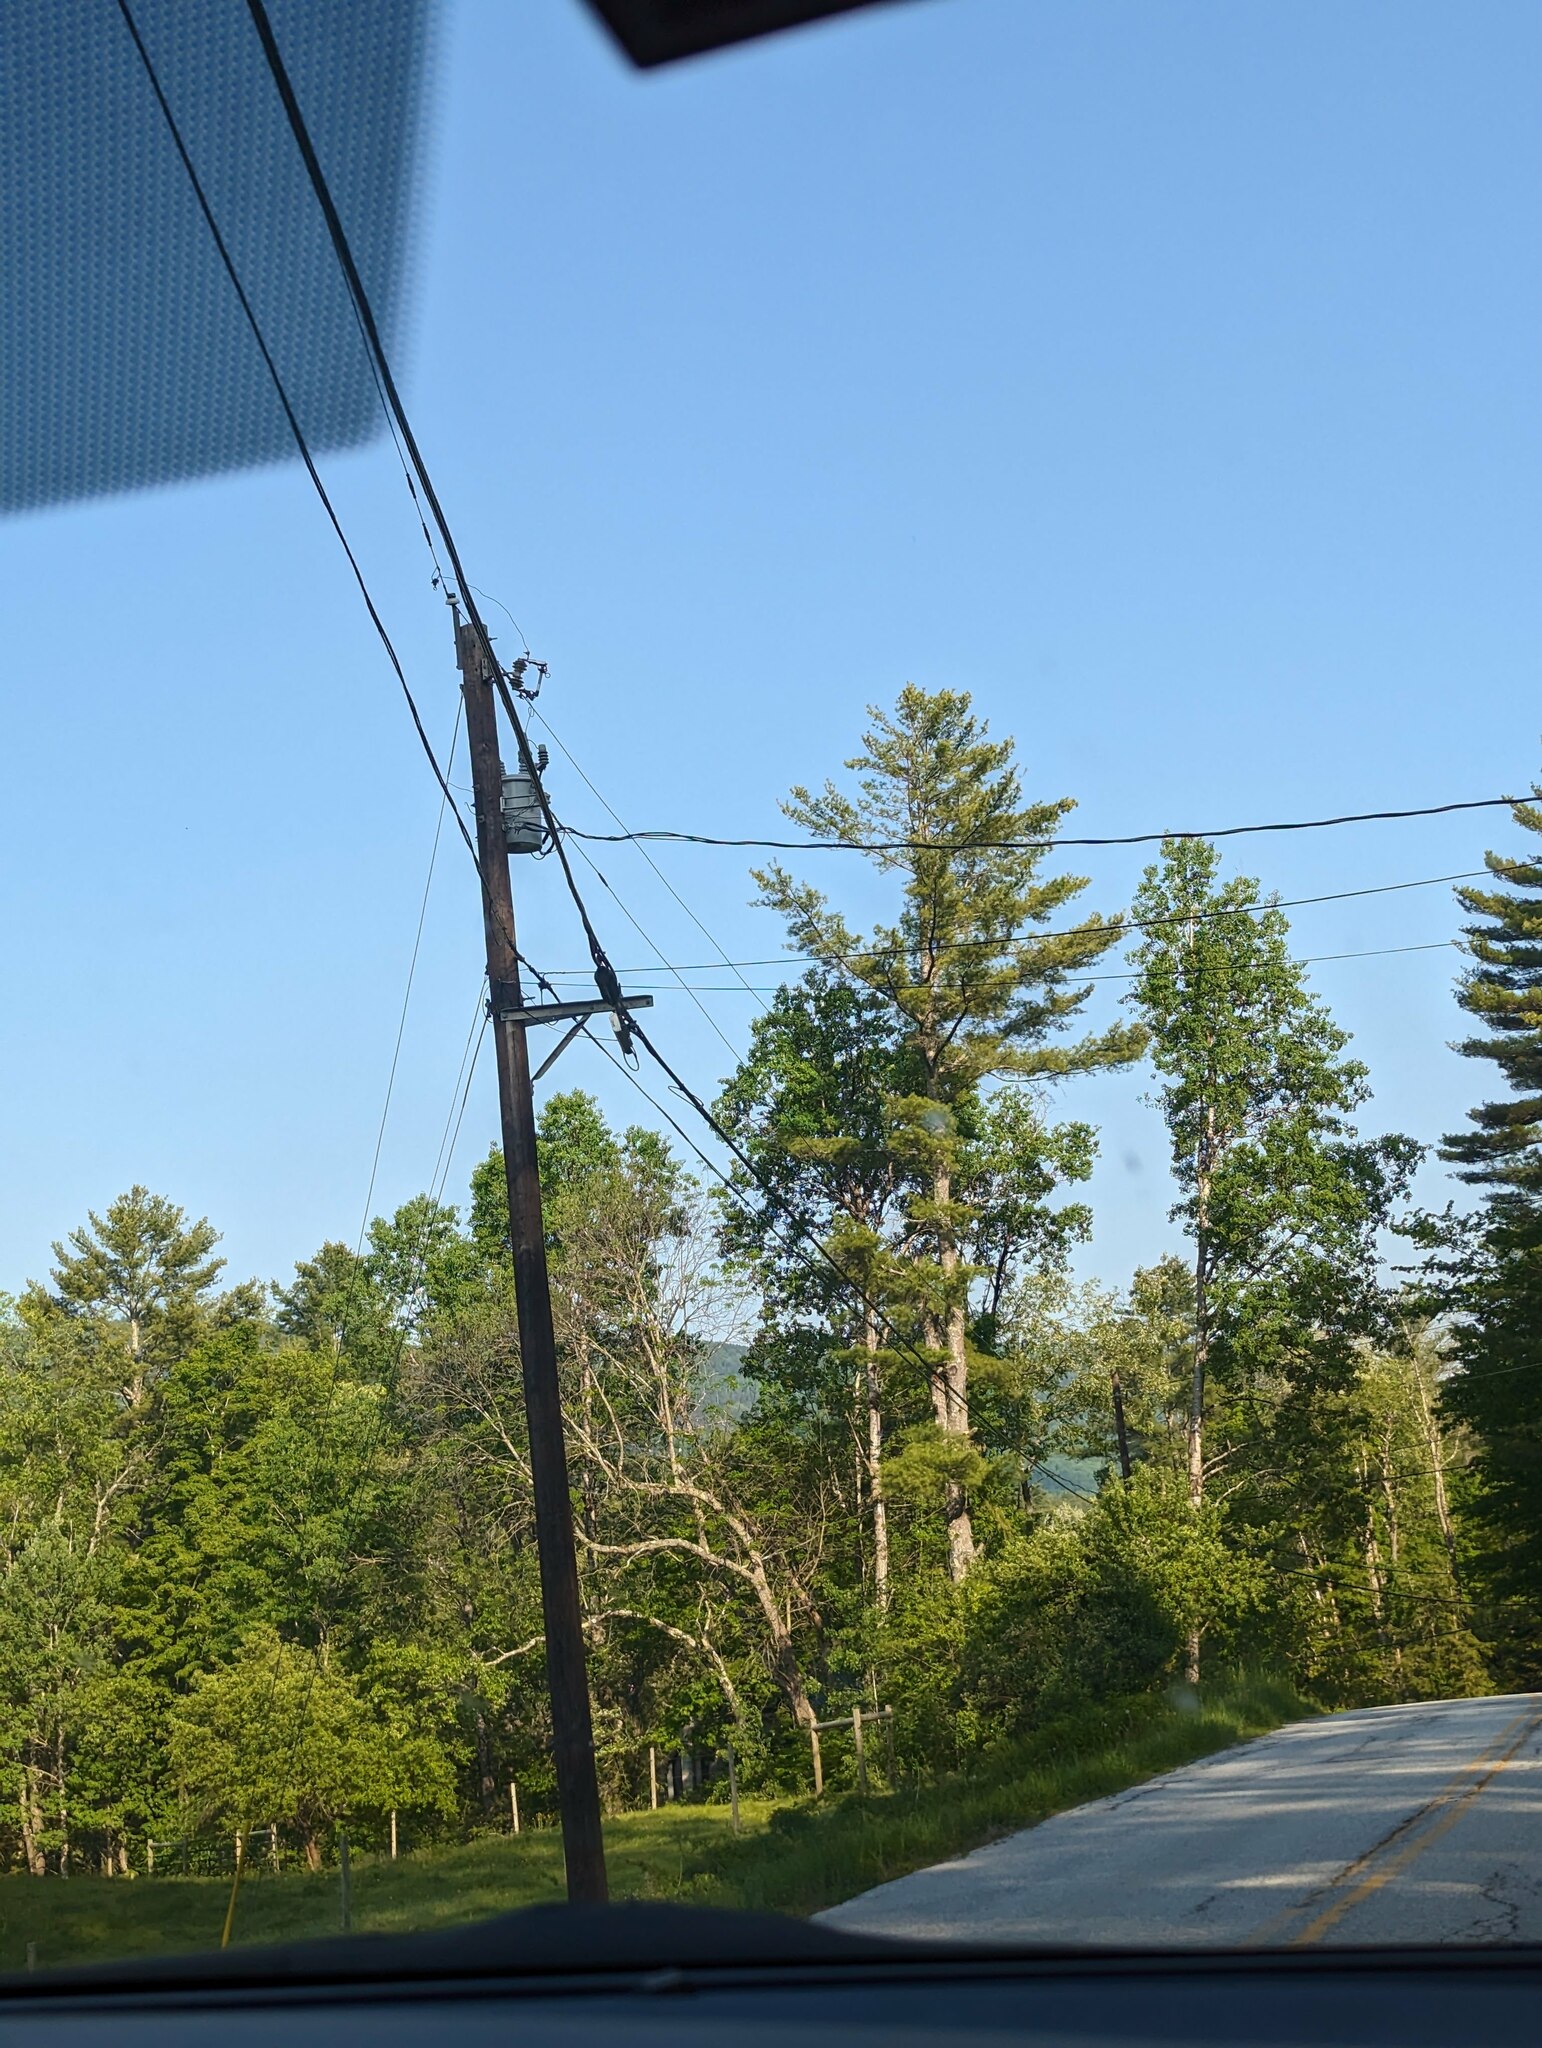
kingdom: Plantae
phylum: Tracheophyta
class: Pinopsida
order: Pinales
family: Pinaceae
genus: Pinus
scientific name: Pinus strobus
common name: Weymouth pine
